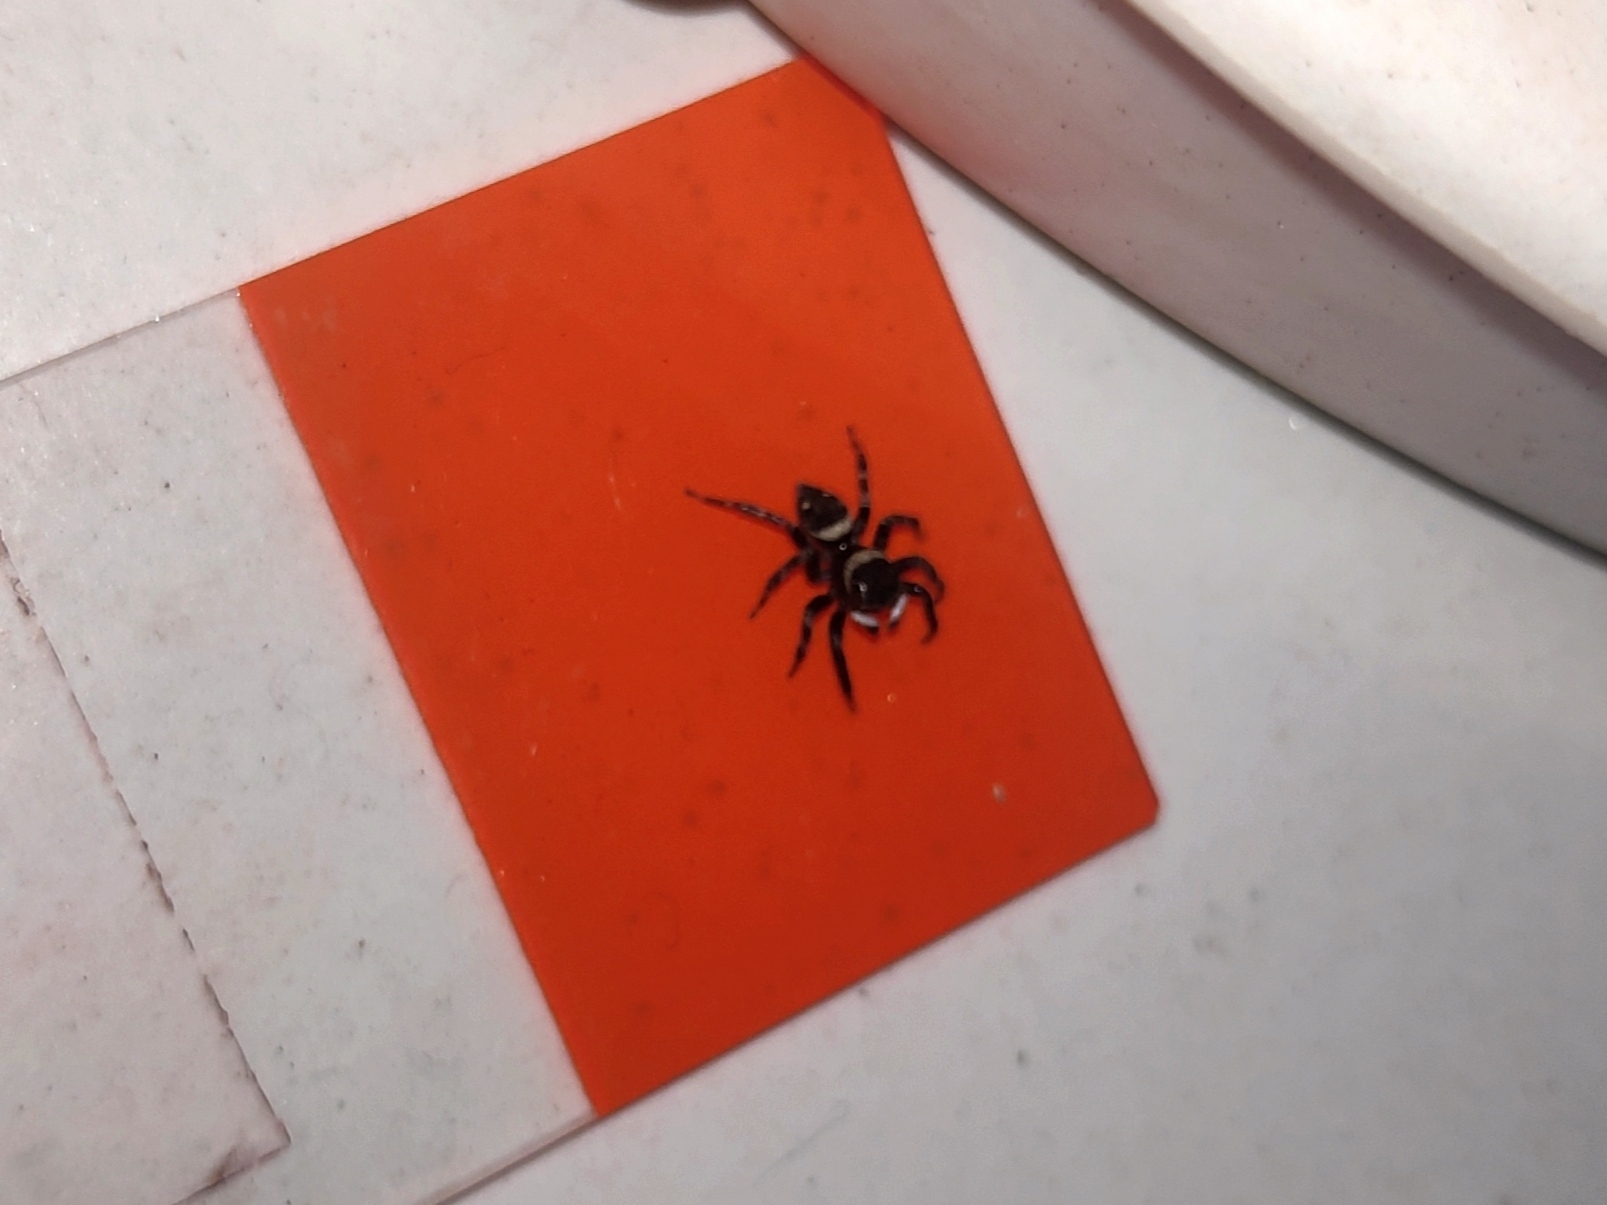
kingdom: Animalia
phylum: Arthropoda
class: Arachnida
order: Araneae
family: Salticidae
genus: Hasarius
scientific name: Hasarius adansoni
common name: Jumping spider
